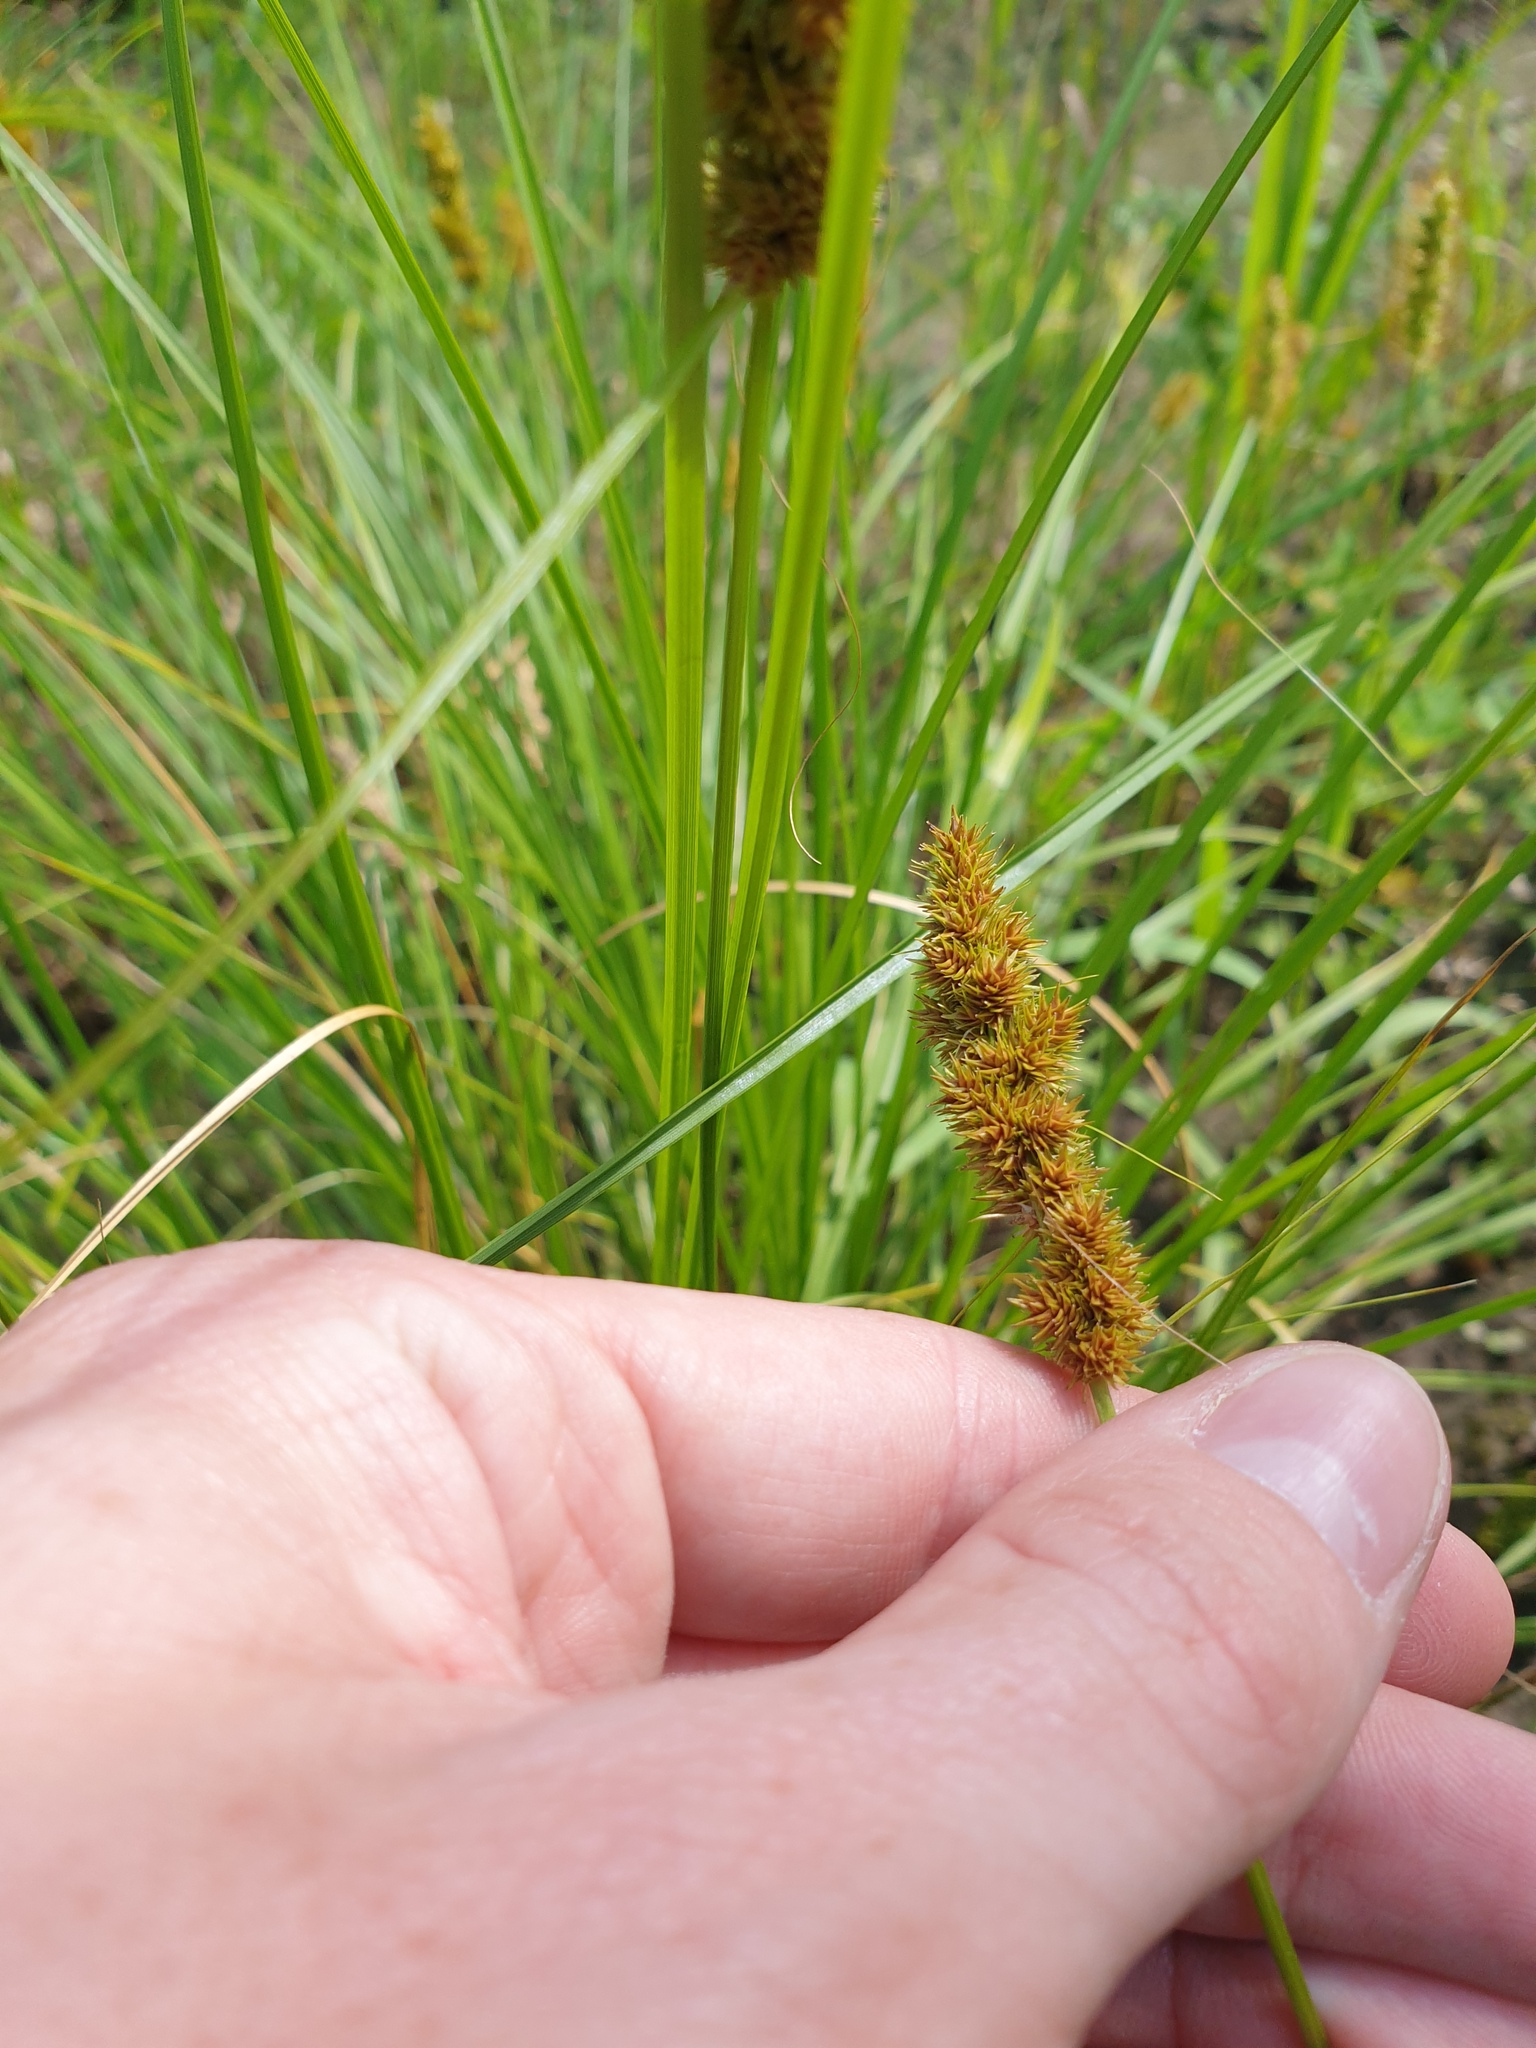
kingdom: Plantae
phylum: Tracheophyta
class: Liliopsida
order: Poales
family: Cyperaceae
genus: Carex
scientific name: Carex vulpinoidea
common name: American fox-sedge
